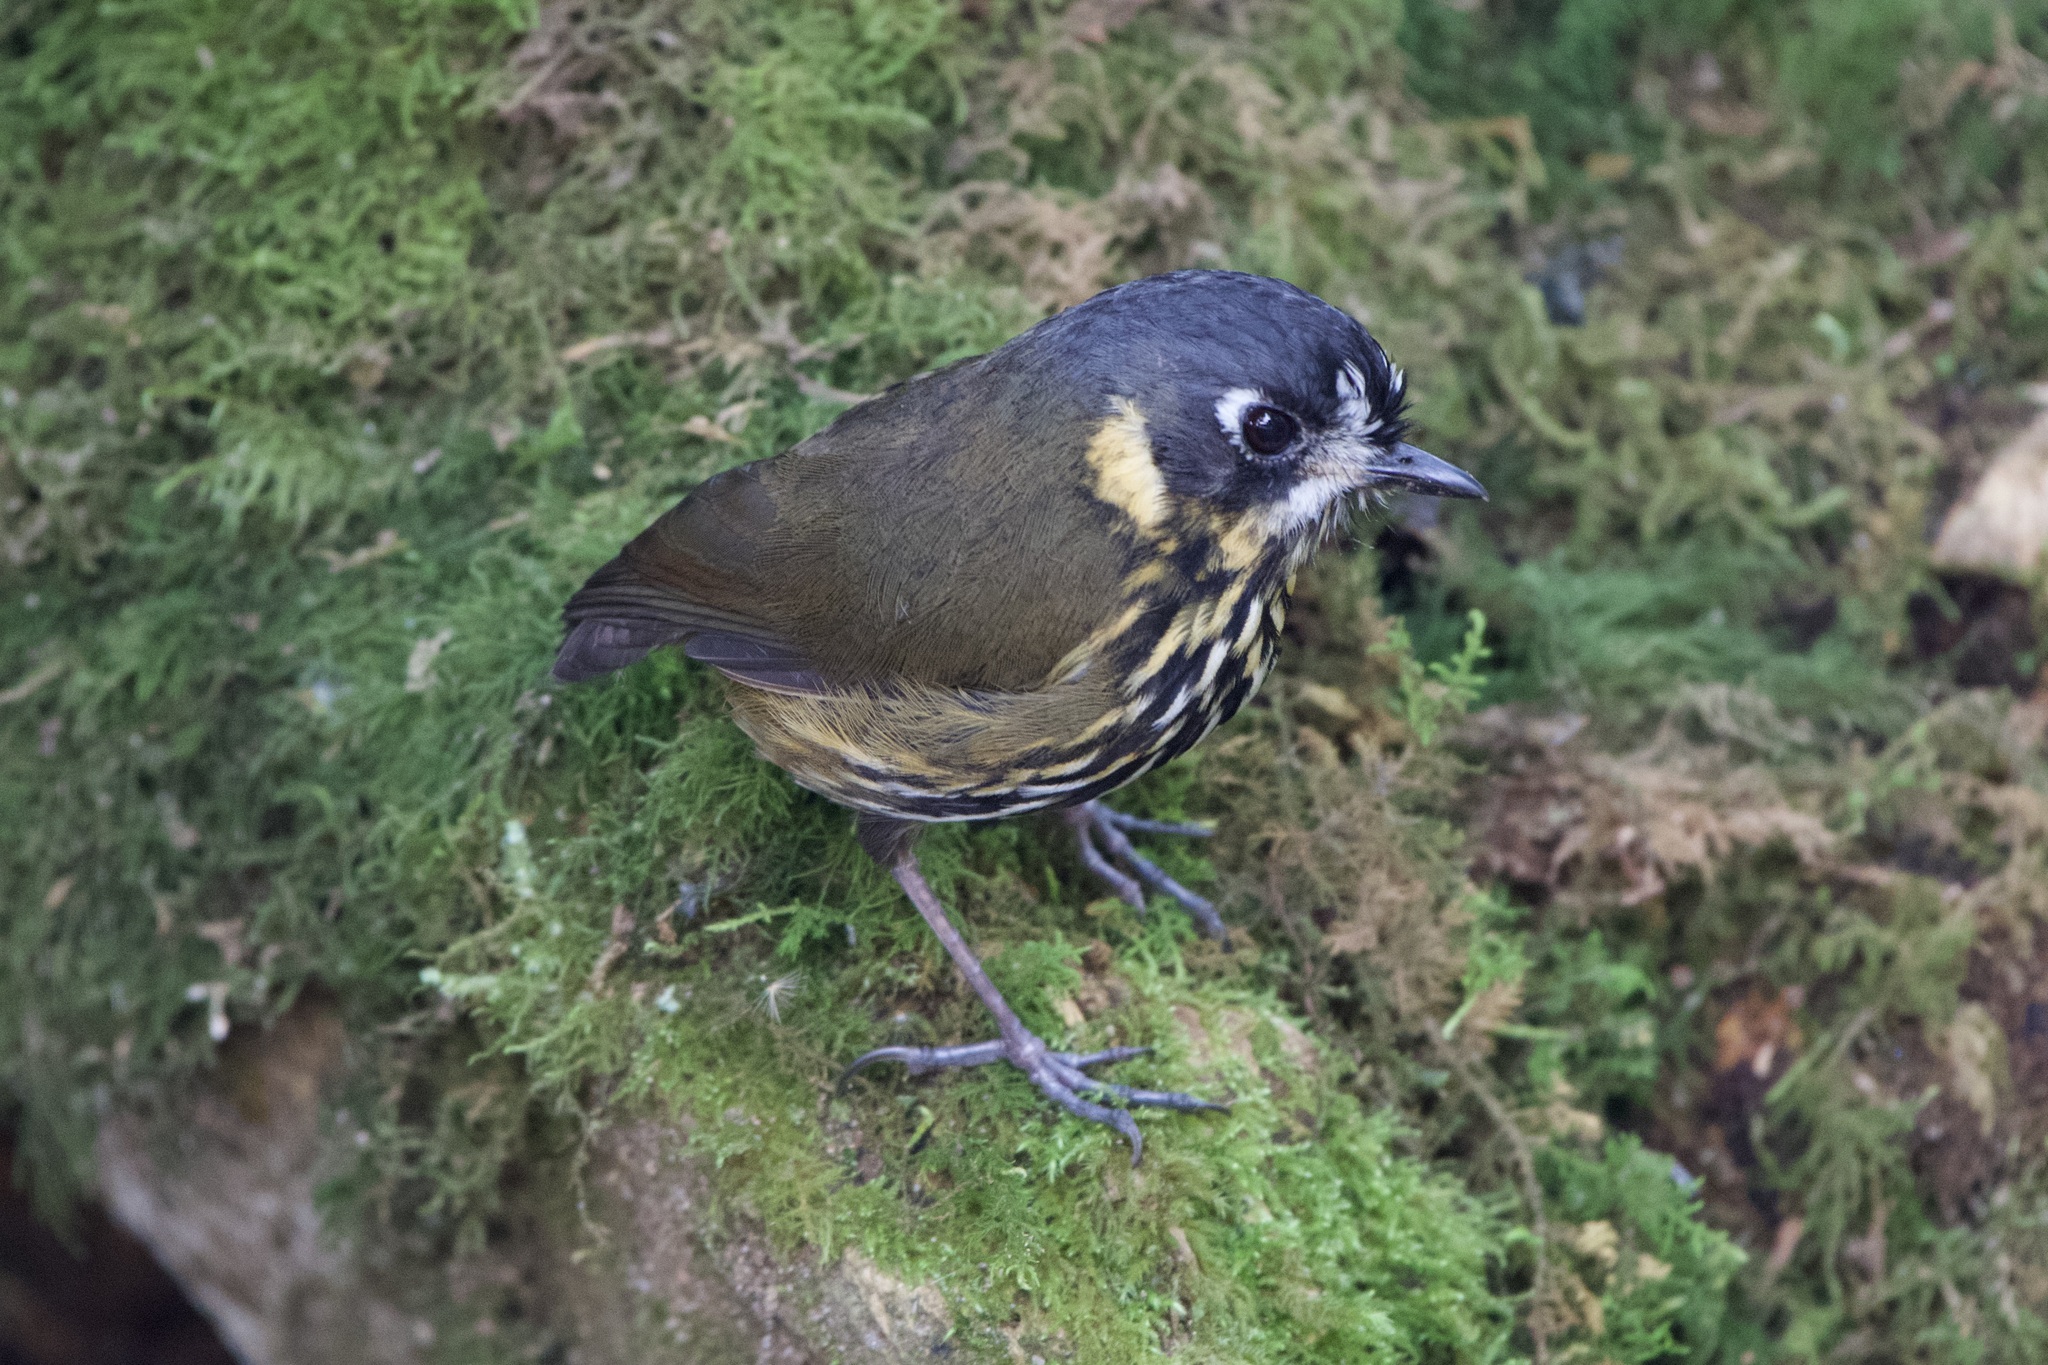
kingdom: Animalia
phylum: Chordata
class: Aves
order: Passeriformes
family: Grallariidae
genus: Grallaricula
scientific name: Grallaricula lineifrons
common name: Crescent-faced antpitta
